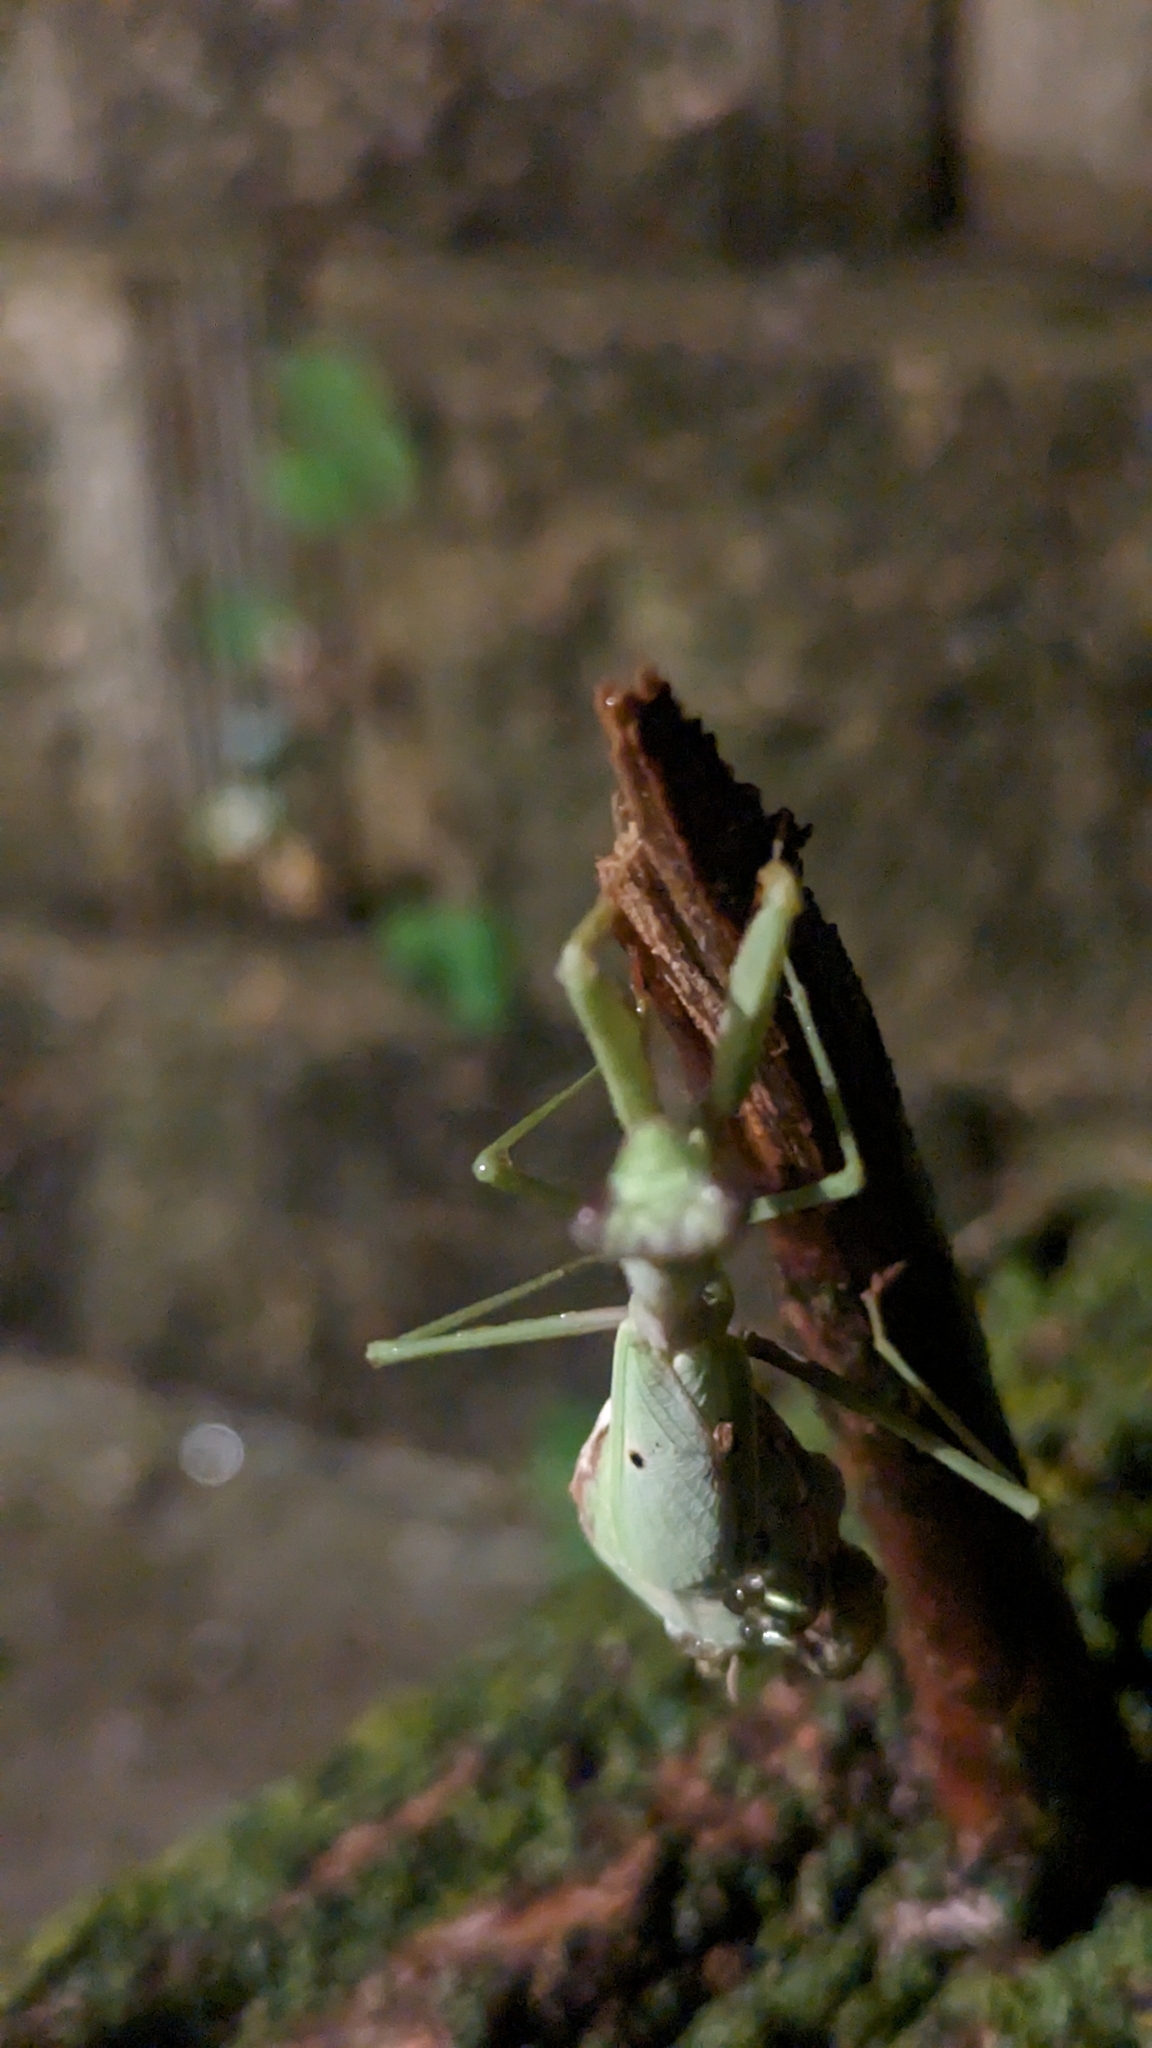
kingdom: Animalia
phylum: Arthropoda
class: Insecta
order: Mantodea
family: Mantidae
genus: Stagmomantis
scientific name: Stagmomantis carolina
